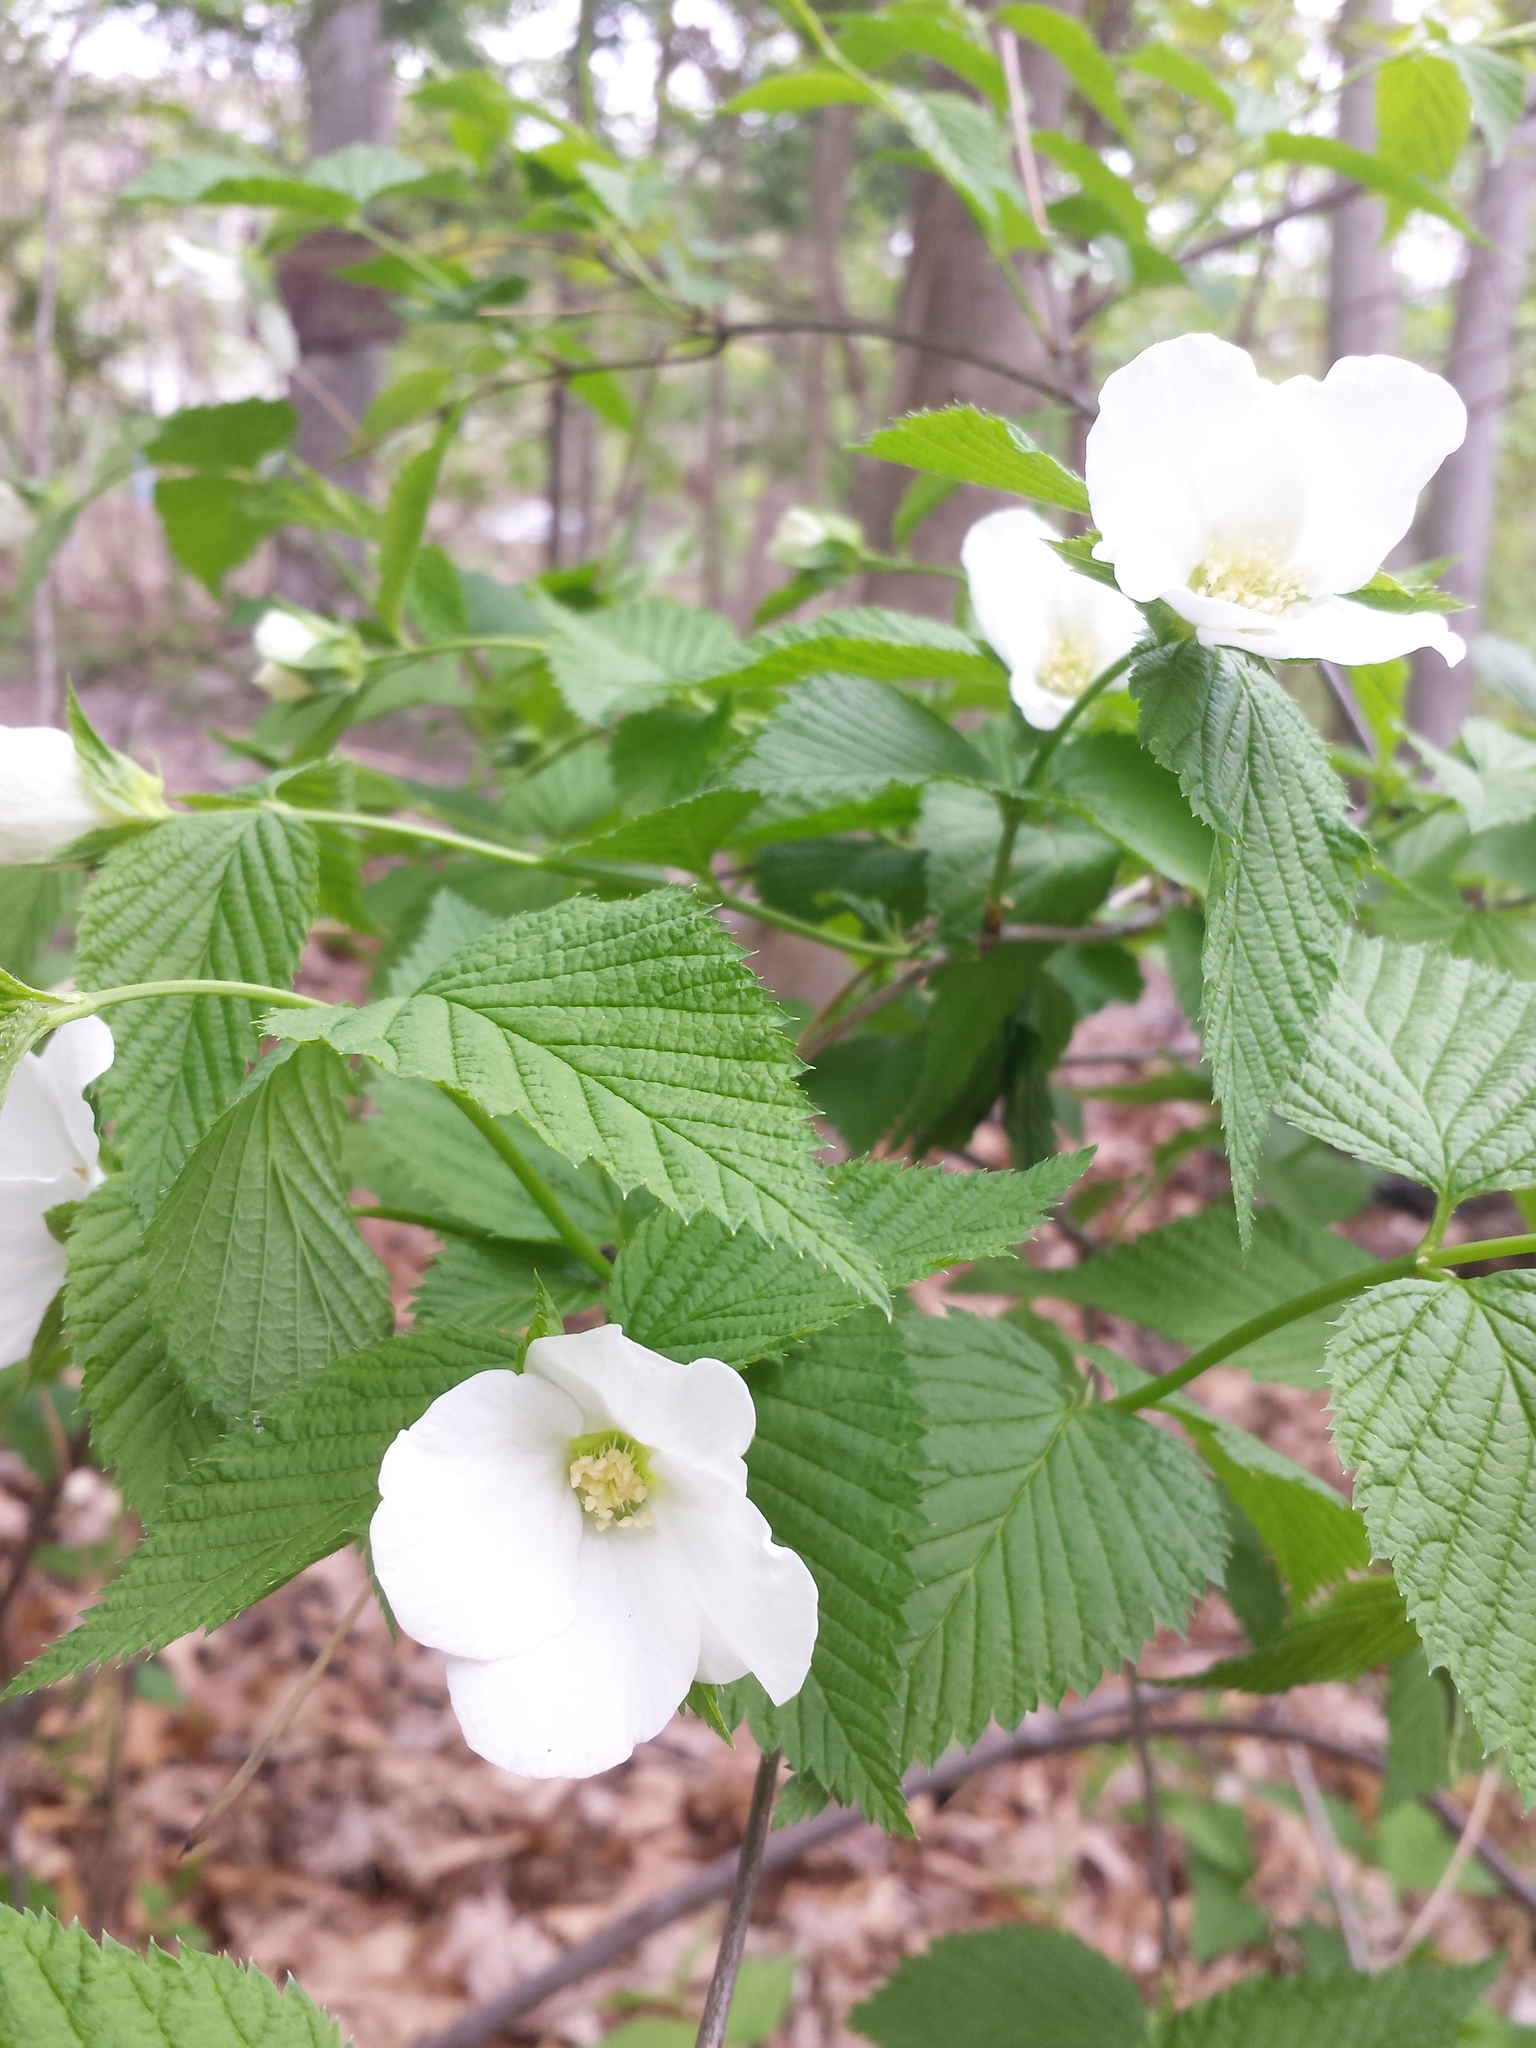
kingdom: Plantae
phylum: Tracheophyta
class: Magnoliopsida
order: Rosales
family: Rosaceae
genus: Rhodotypos
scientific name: Rhodotypos scandens
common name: Jetbead
